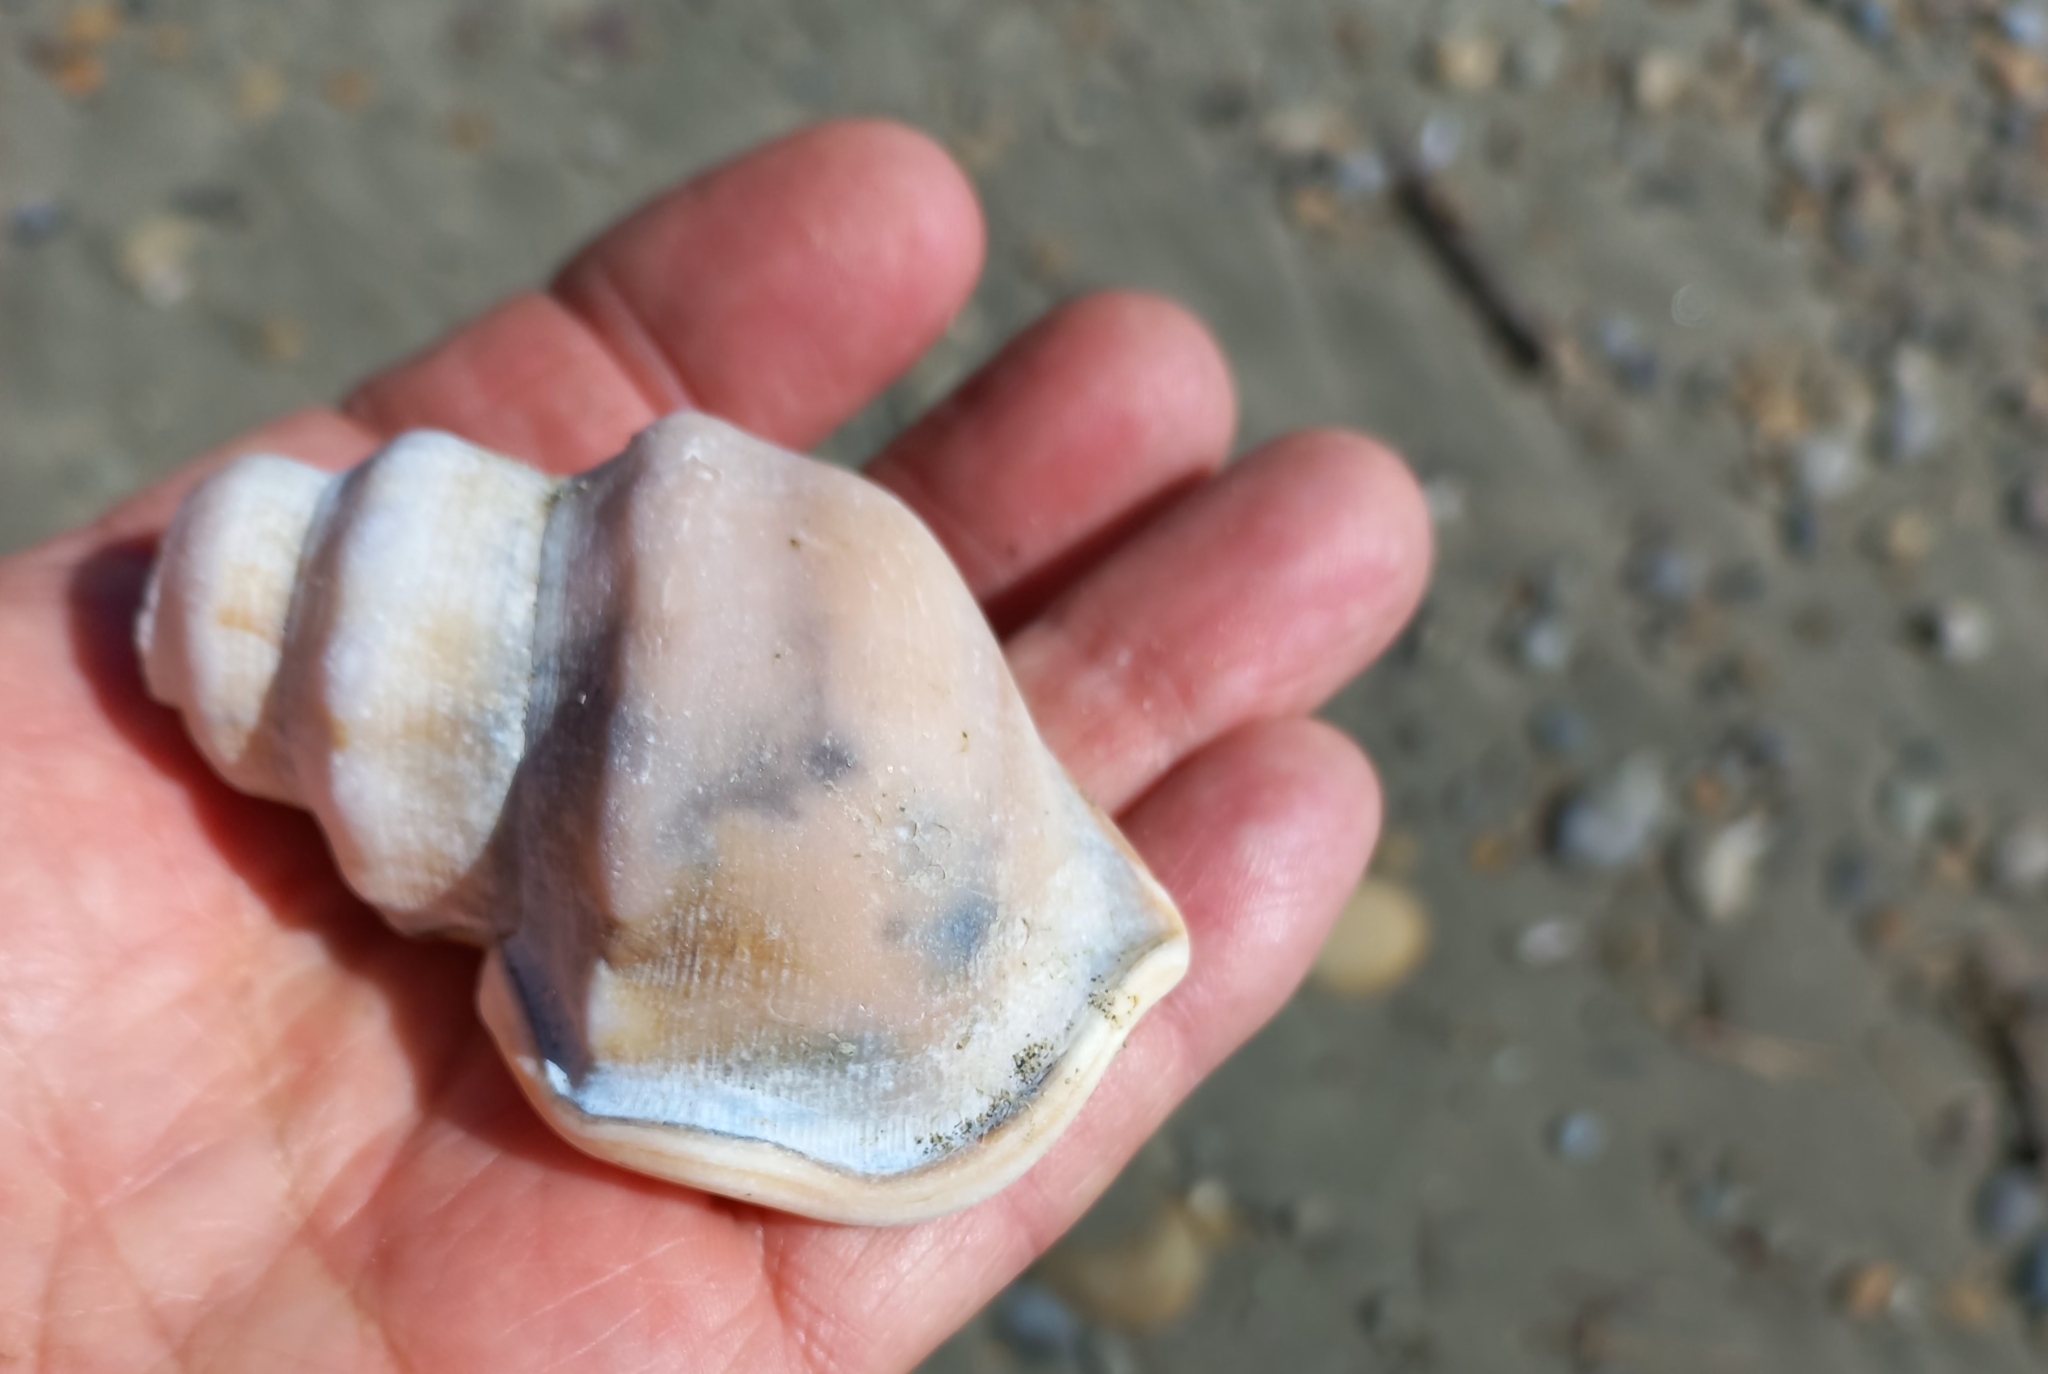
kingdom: Animalia
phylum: Mollusca
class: Gastropoda
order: Littorinimorpha
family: Struthiolariidae
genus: Struthiolaria
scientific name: Struthiolaria papulosa
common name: Large ostrich foot
